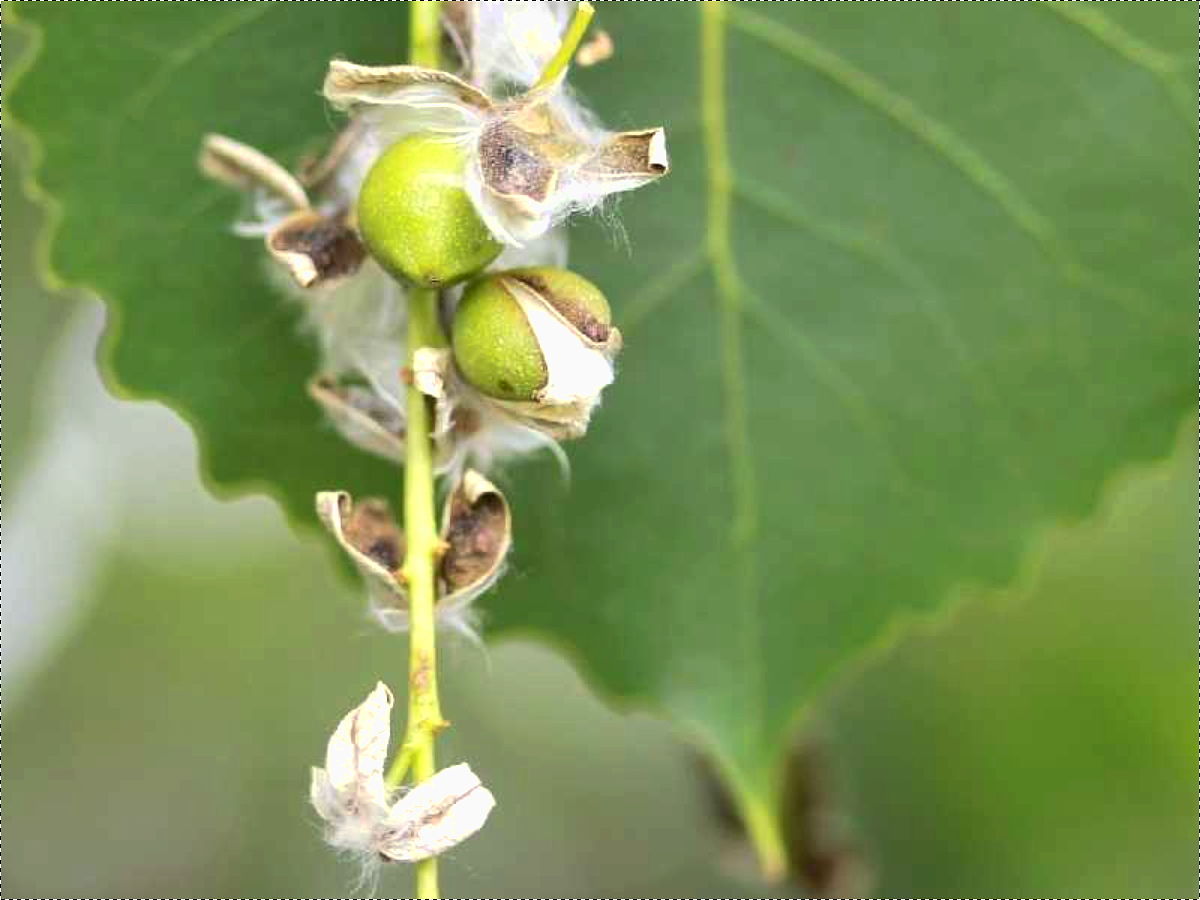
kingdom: Plantae
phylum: Tracheophyta
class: Magnoliopsida
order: Malpighiales
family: Salicaceae
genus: Populus
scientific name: Populus deltoides
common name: Eastern cottonwood
